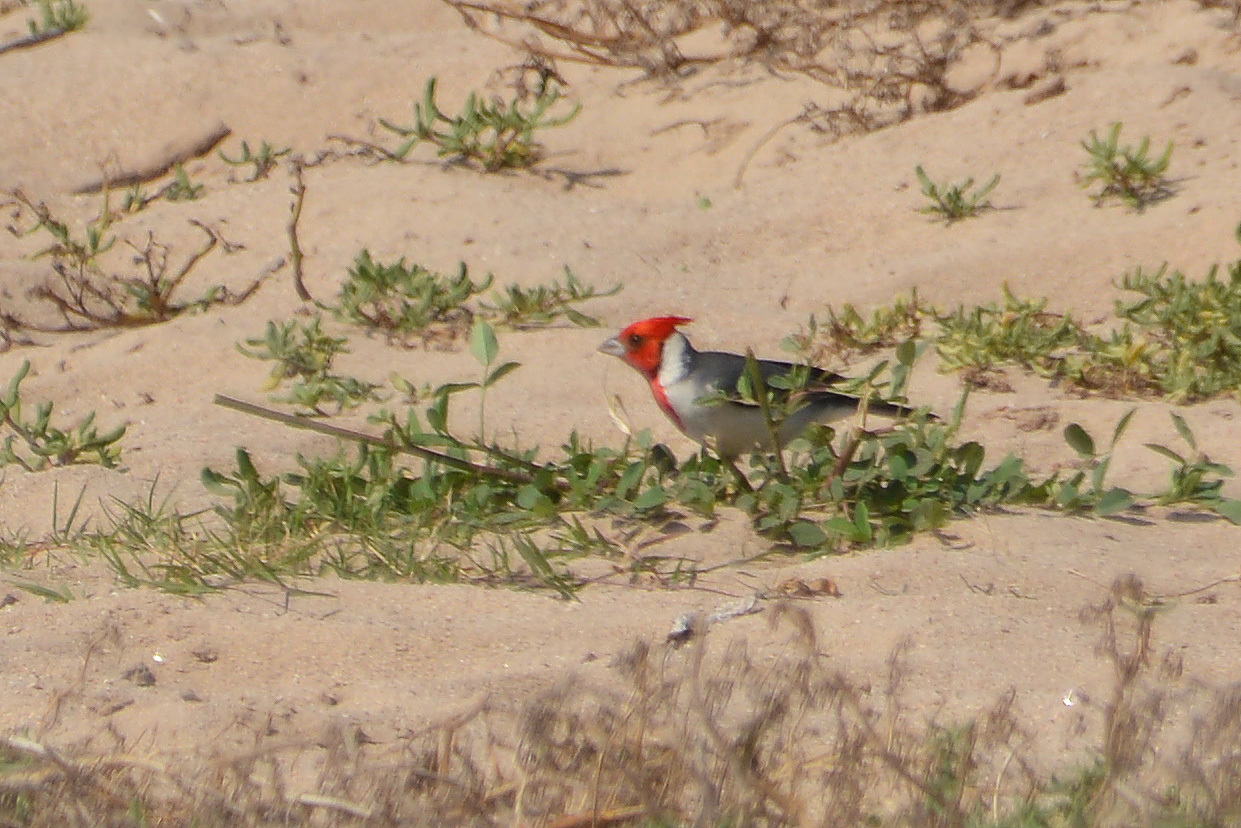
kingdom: Animalia
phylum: Chordata
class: Aves
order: Passeriformes
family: Thraupidae
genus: Paroaria
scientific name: Paroaria coronata
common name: Red-crested cardinal
